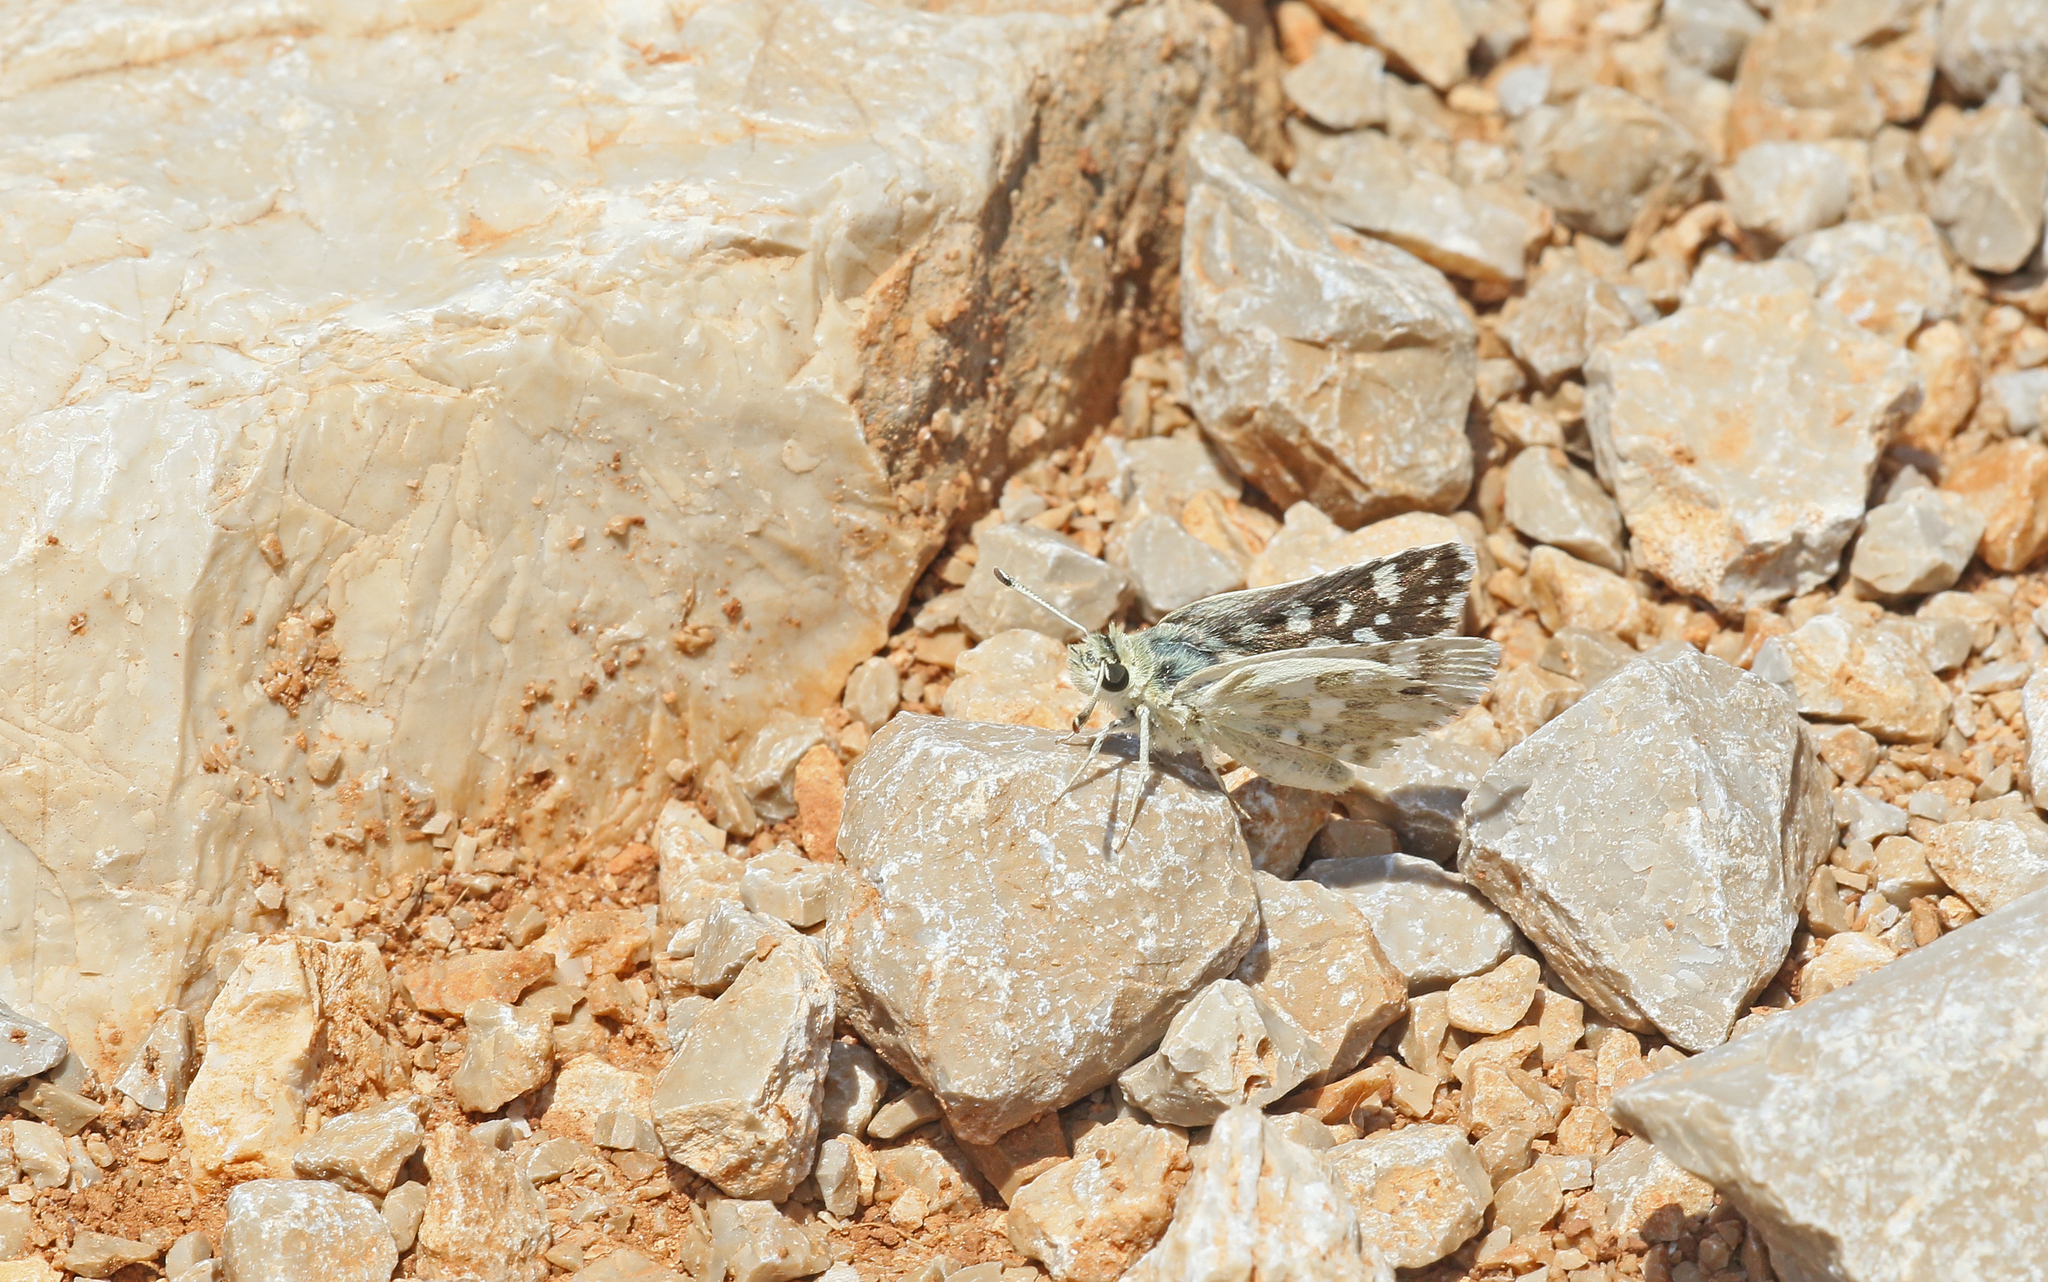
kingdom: Animalia
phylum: Arthropoda
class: Insecta
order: Lepidoptera
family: Hesperiidae
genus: Spialia
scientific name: Spialia phlomidis
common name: Persian skipper
